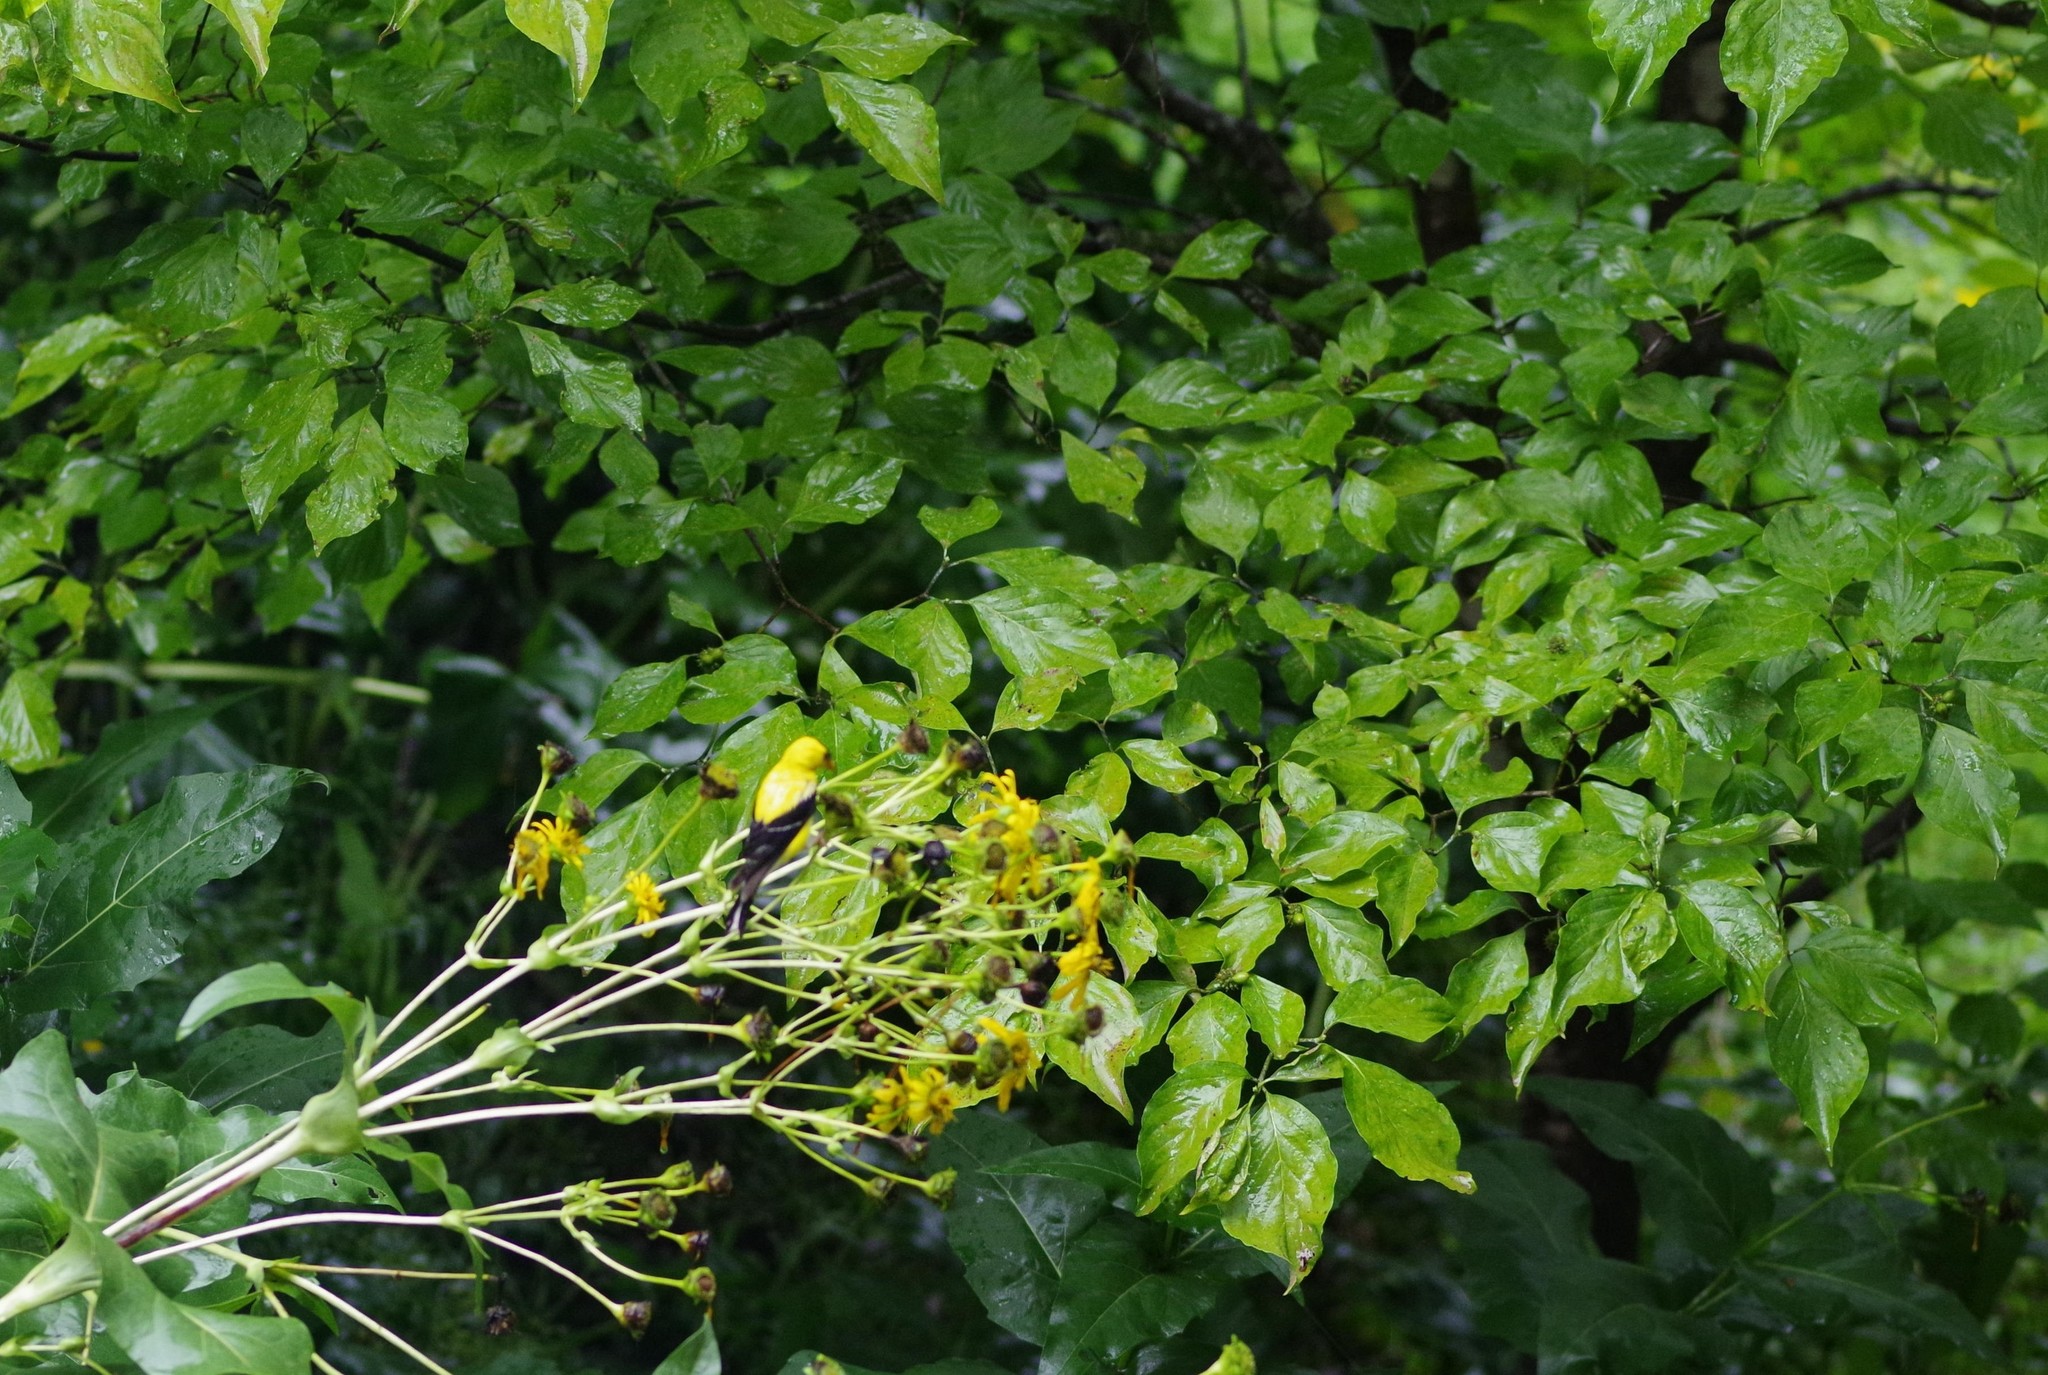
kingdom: Animalia
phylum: Chordata
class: Aves
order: Passeriformes
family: Fringillidae
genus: Spinus
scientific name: Spinus tristis
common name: American goldfinch
